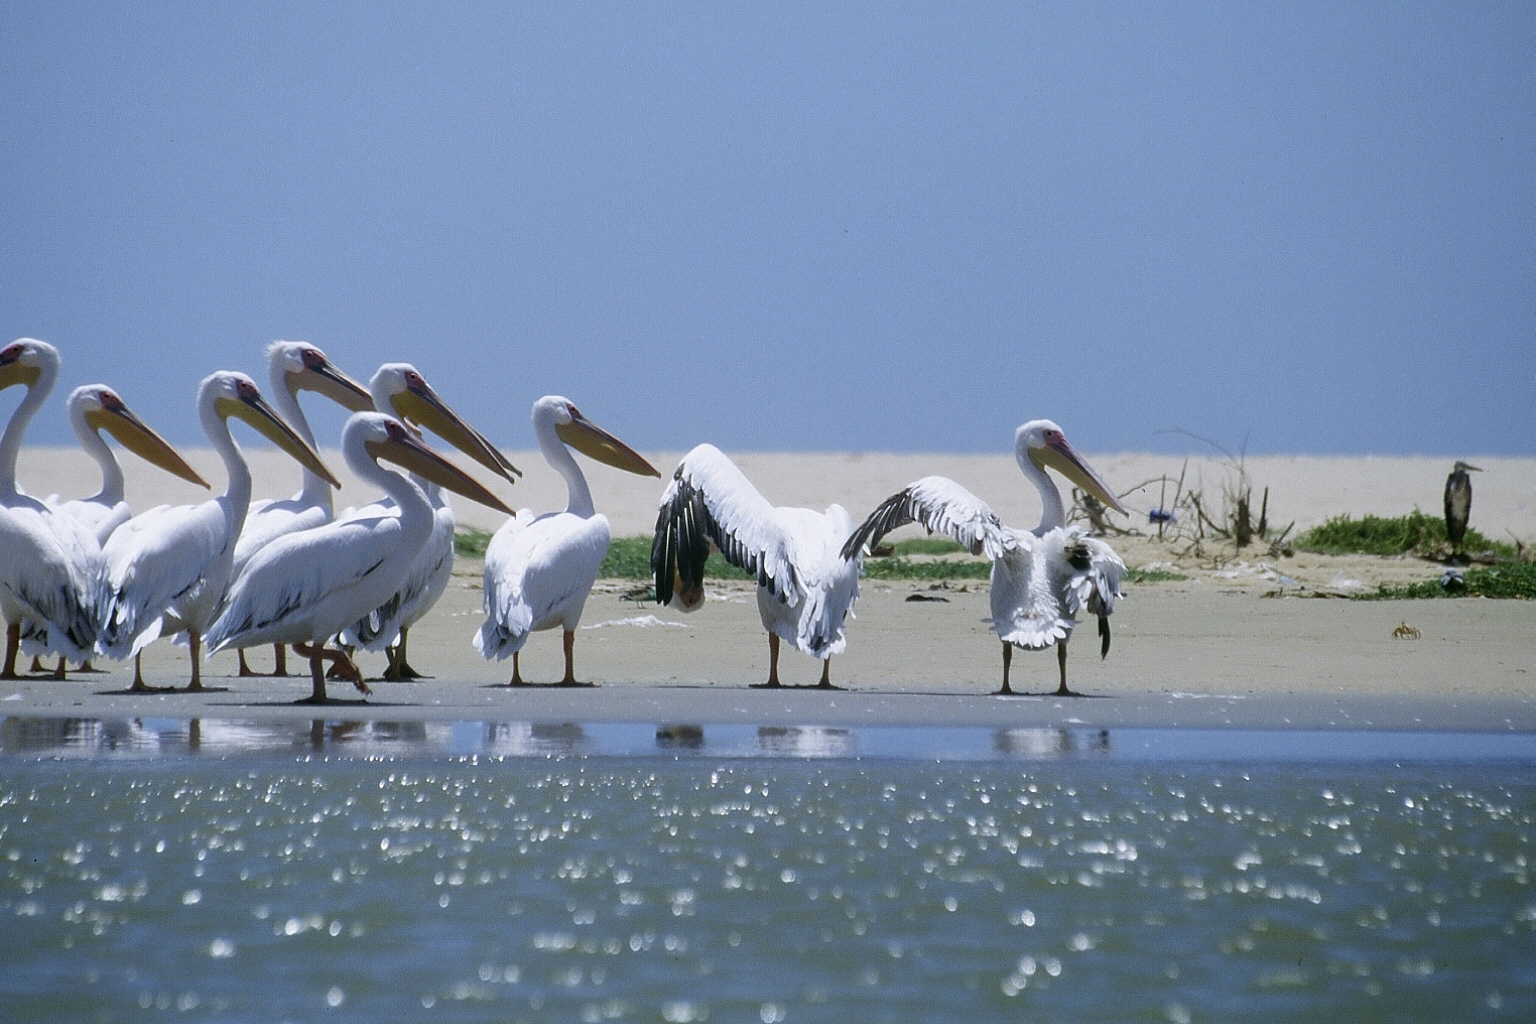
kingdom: Animalia
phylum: Chordata
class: Aves
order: Pelecaniformes
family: Pelecanidae
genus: Pelecanus
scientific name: Pelecanus onocrotalus
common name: Great white pelican
